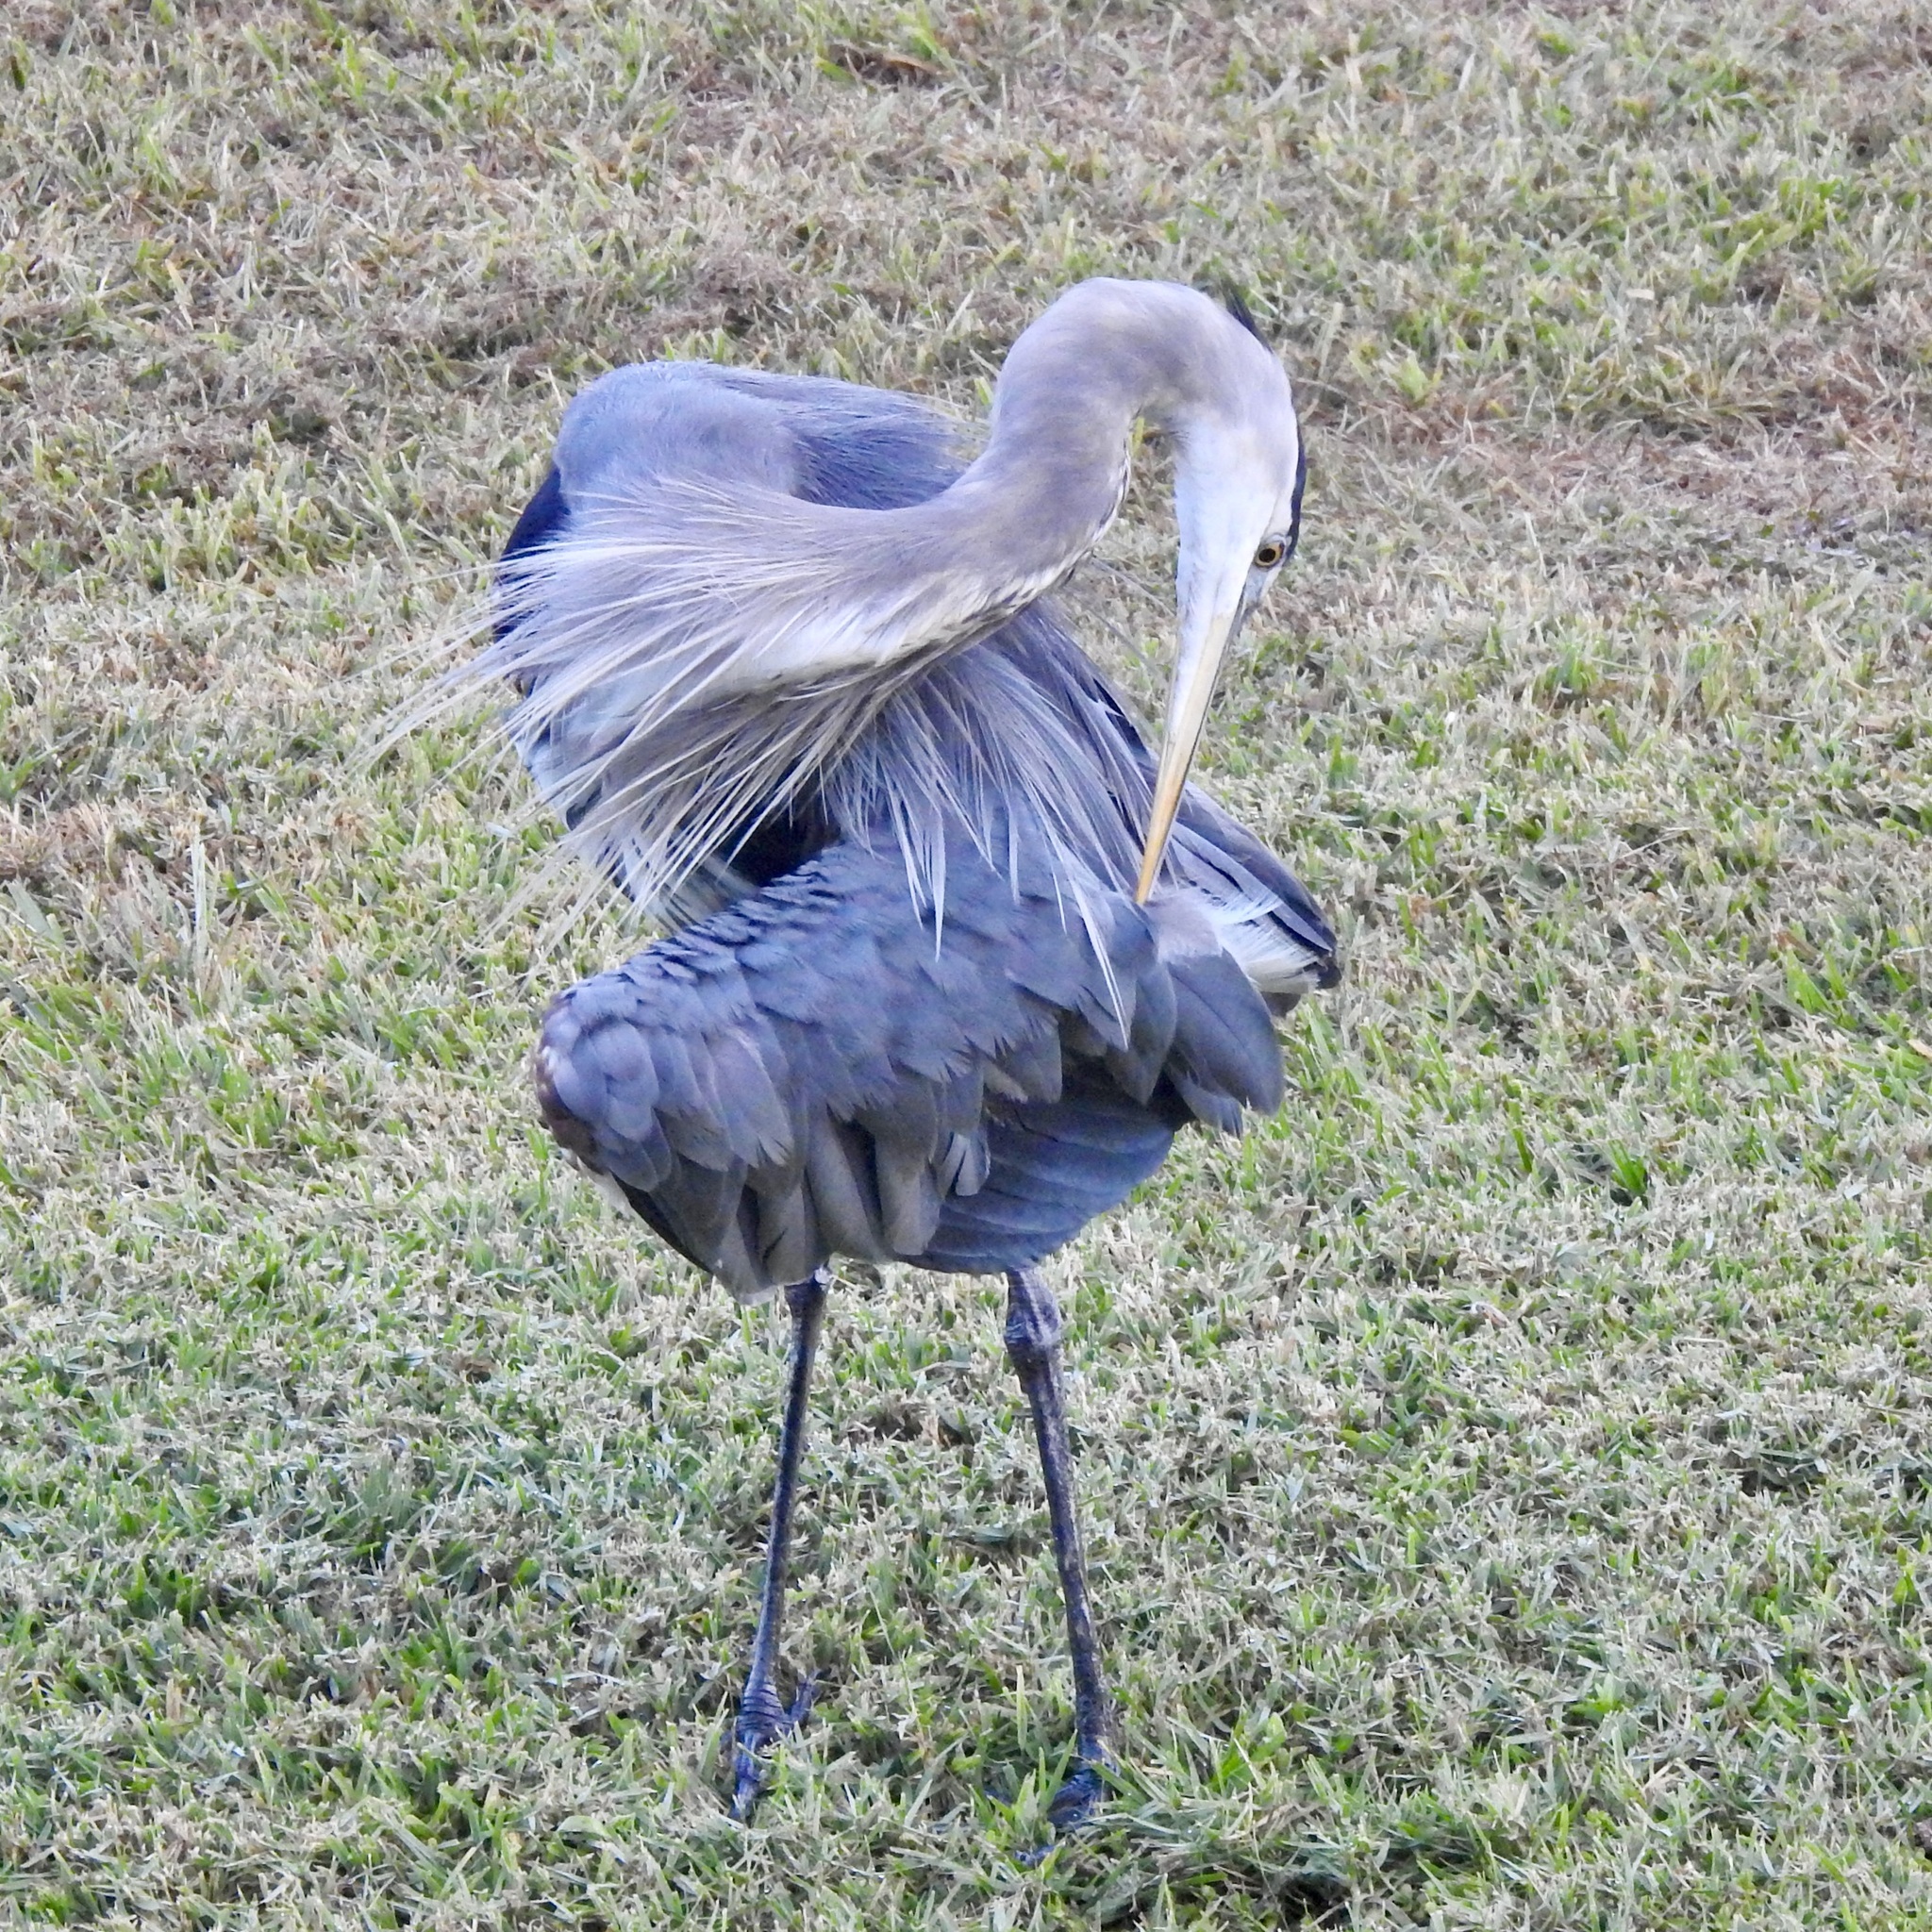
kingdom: Animalia
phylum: Chordata
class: Aves
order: Pelecaniformes
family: Ardeidae
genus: Ardea
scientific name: Ardea herodias
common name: Great blue heron
